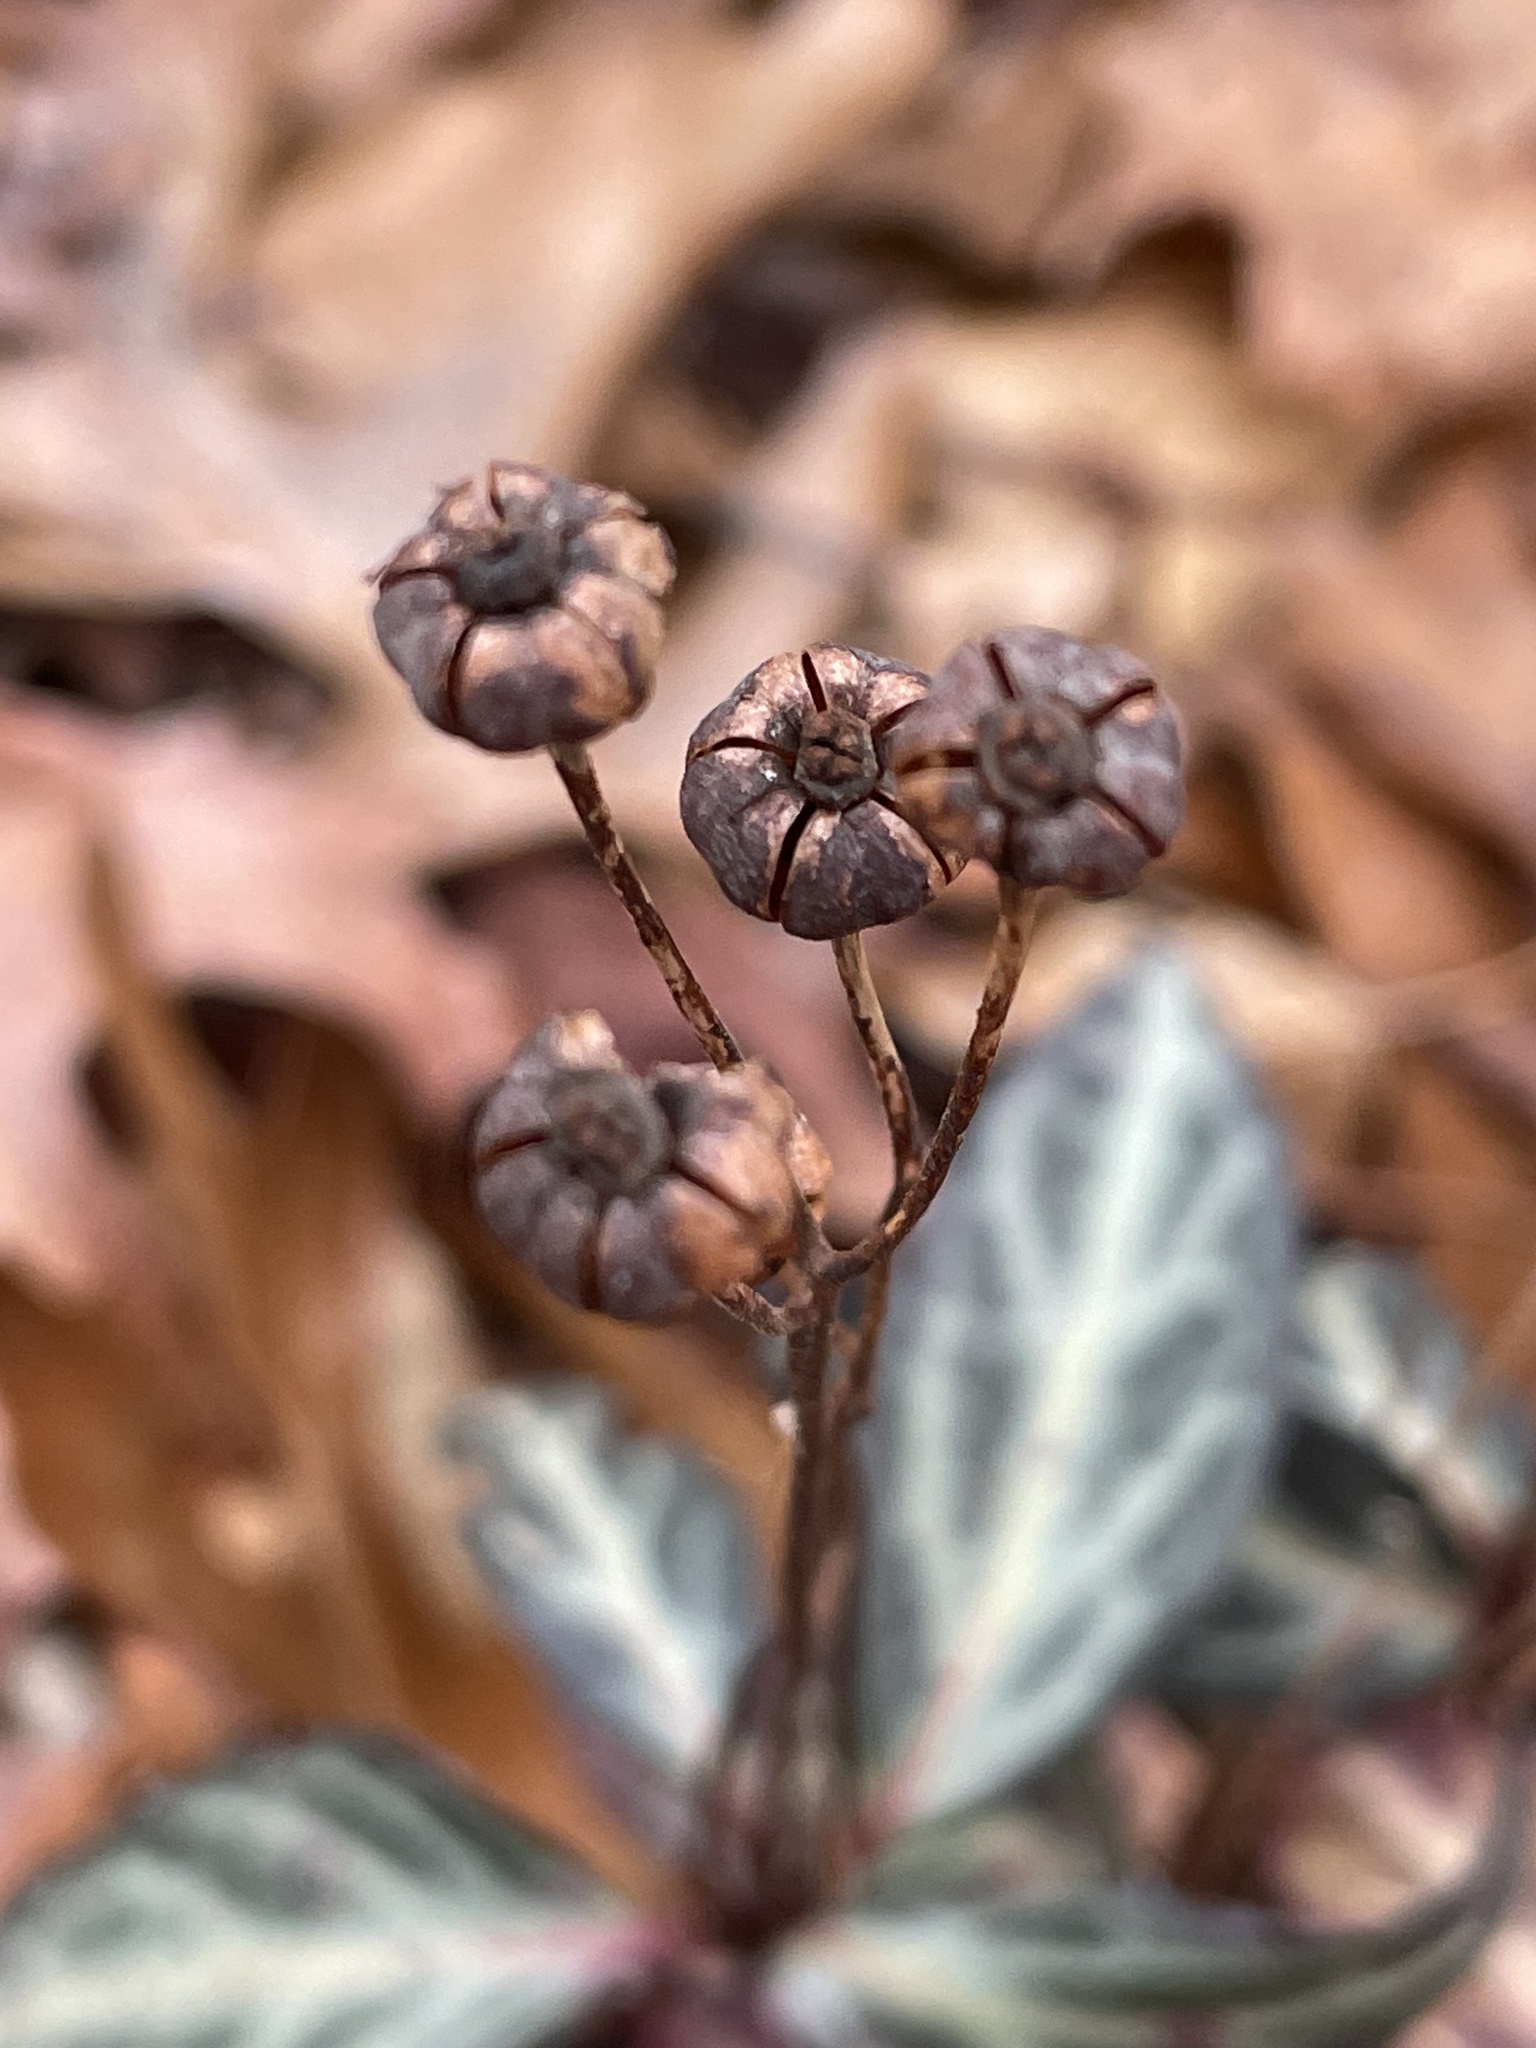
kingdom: Plantae
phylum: Tracheophyta
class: Magnoliopsida
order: Ericales
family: Ericaceae
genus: Chimaphila
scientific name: Chimaphila maculata
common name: Spotted pipsissewa
